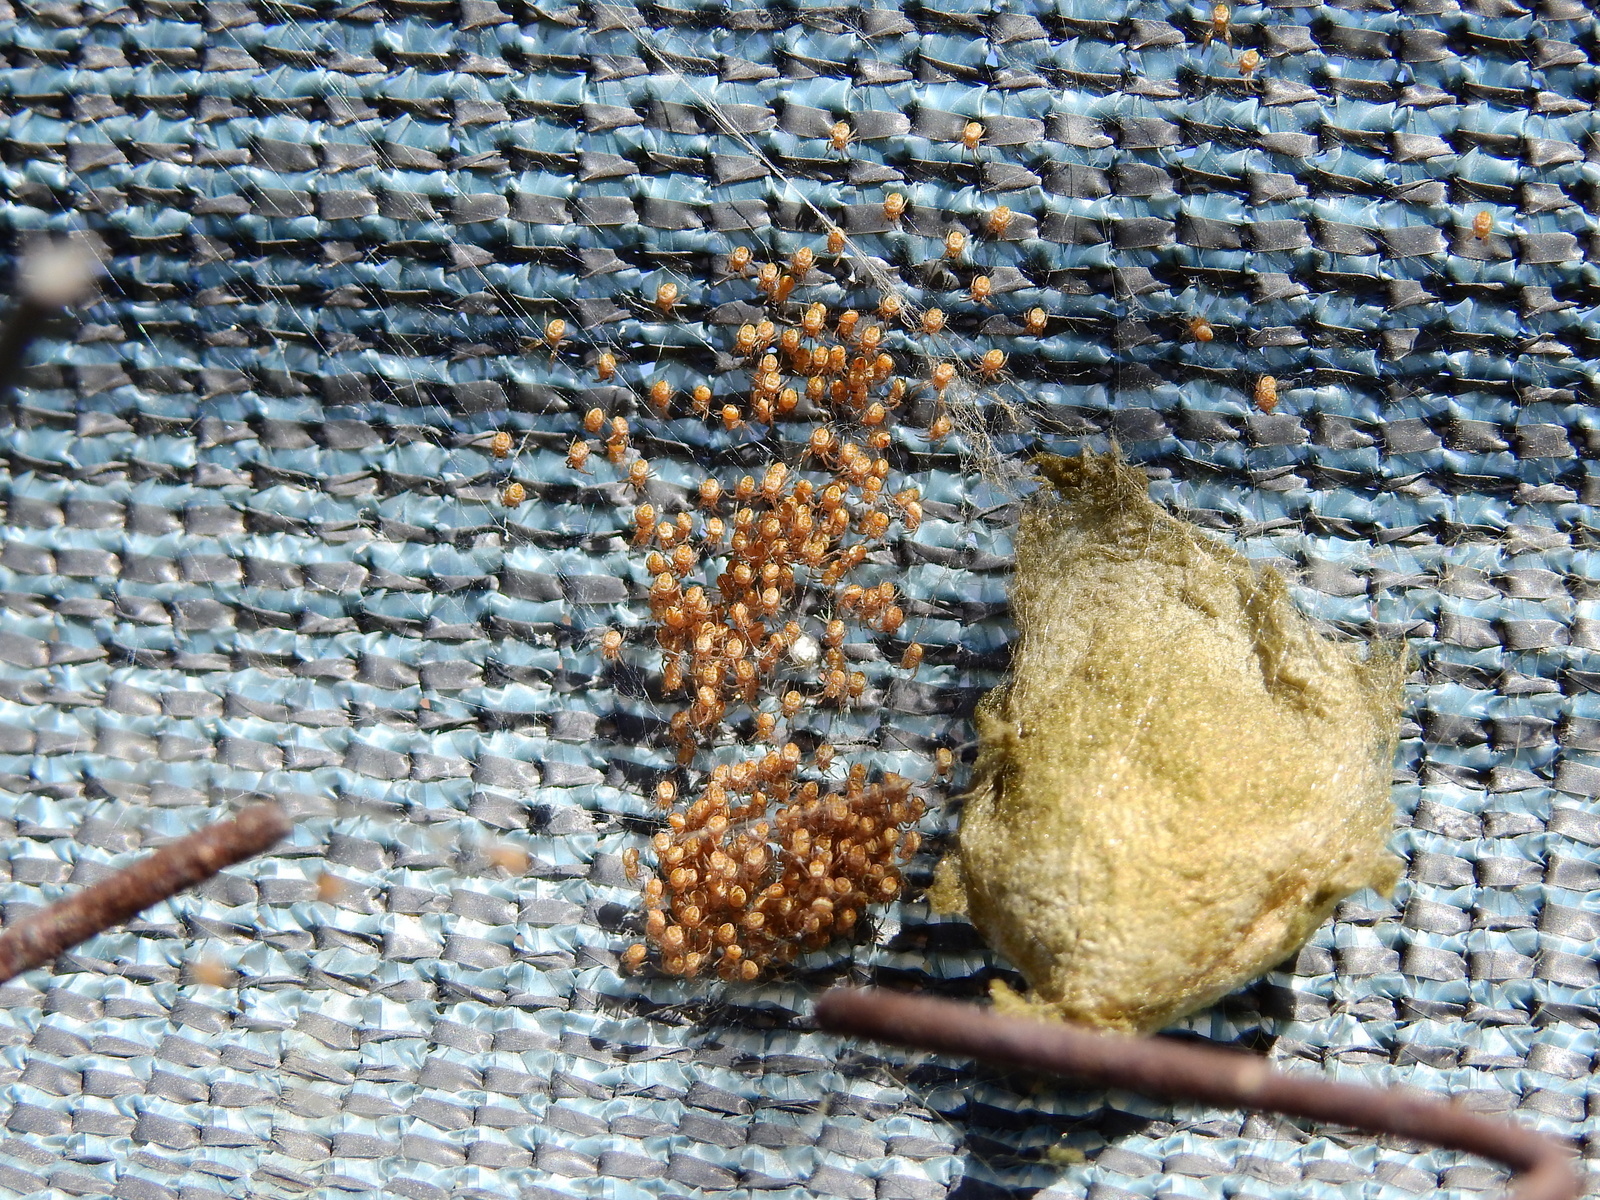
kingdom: Animalia
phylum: Arthropoda
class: Arachnida
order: Araneae
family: Araneidae
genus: Argiope
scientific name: Argiope argentata
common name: Orb weavers
